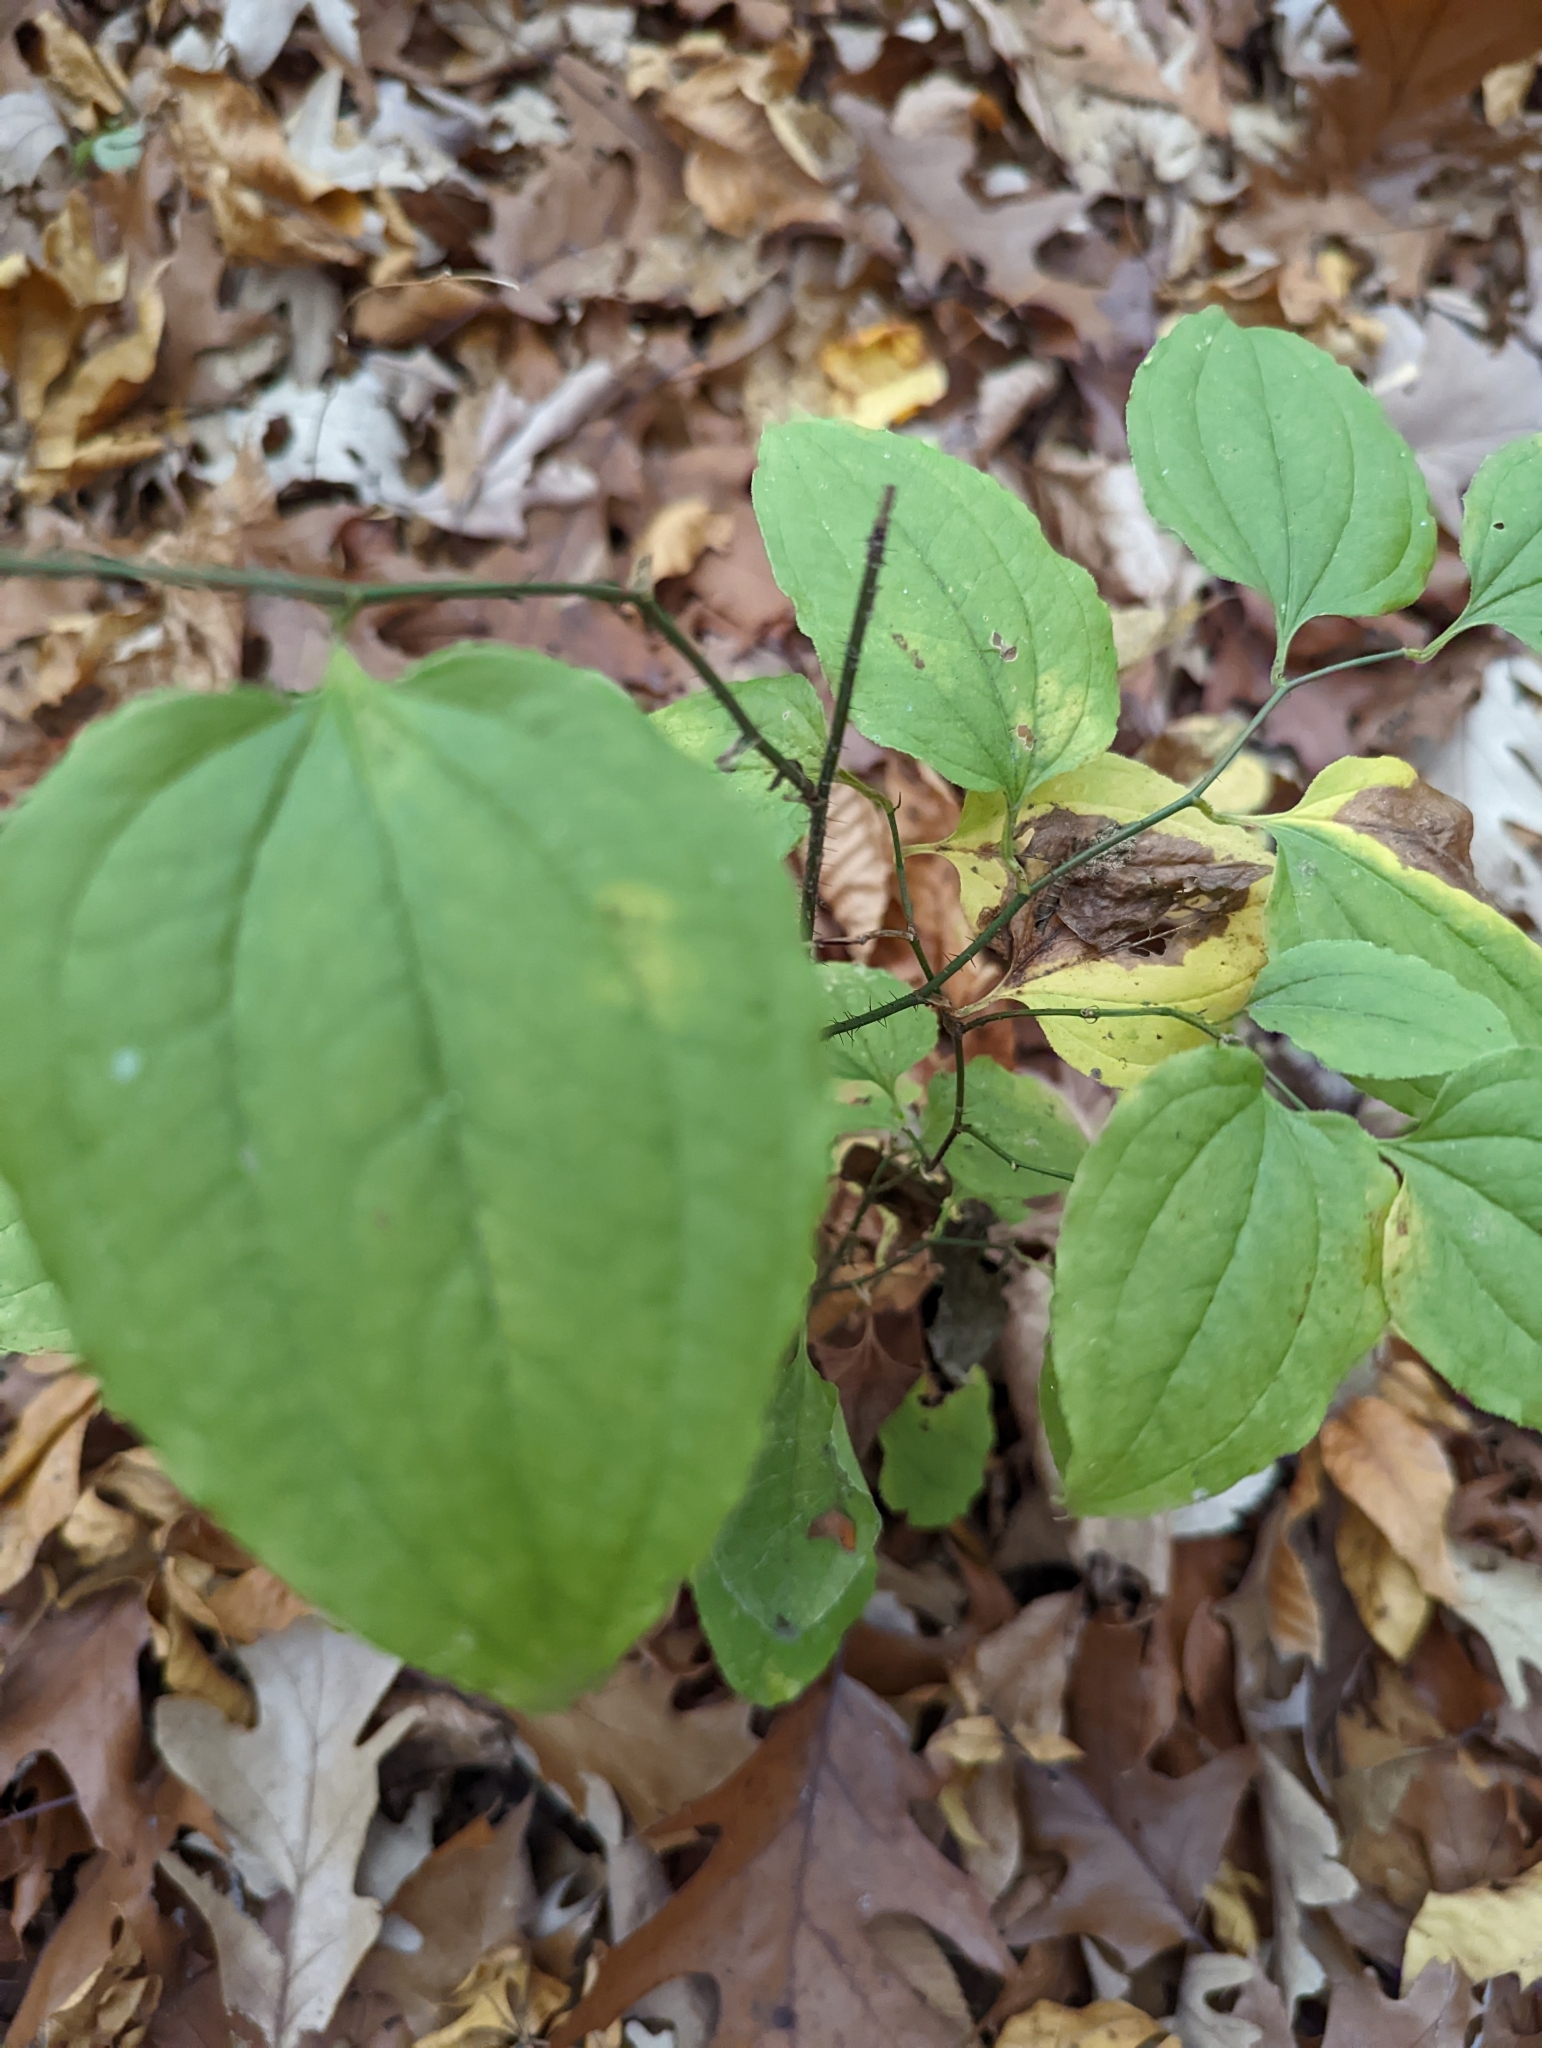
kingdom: Plantae
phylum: Tracheophyta
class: Liliopsida
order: Liliales
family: Smilacaceae
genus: Smilax
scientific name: Smilax tamnoides
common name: Hellfetter
